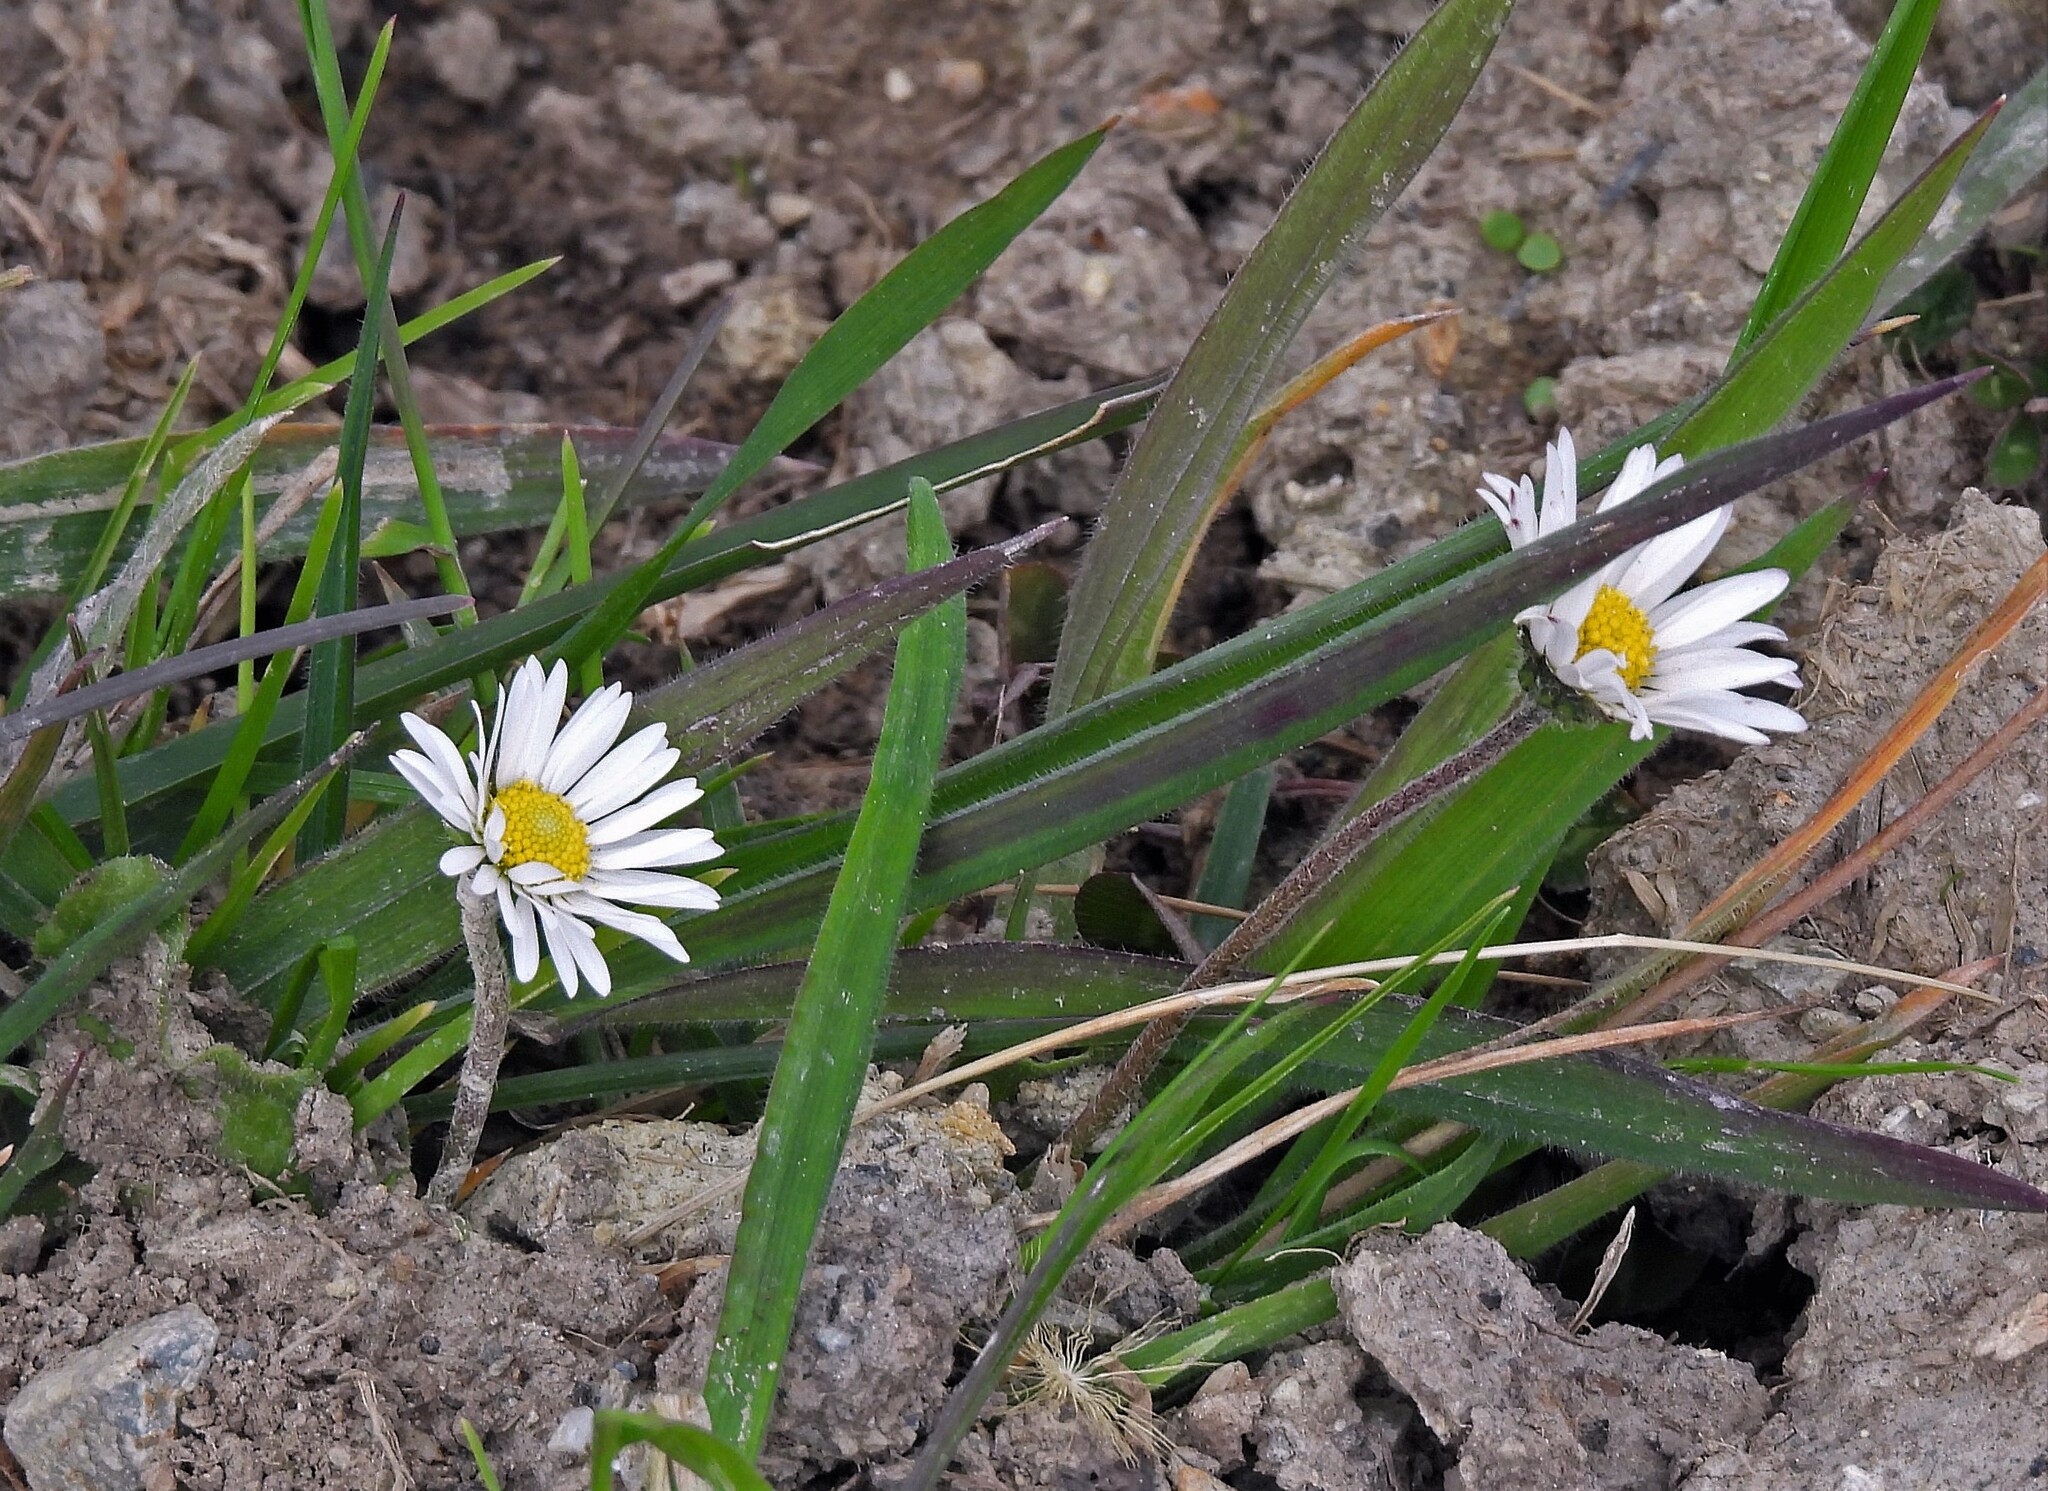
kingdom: Plantae
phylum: Tracheophyta
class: Magnoliopsida
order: Asterales
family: Asteraceae
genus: Bellis
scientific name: Bellis perennis
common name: Lawndaisy
